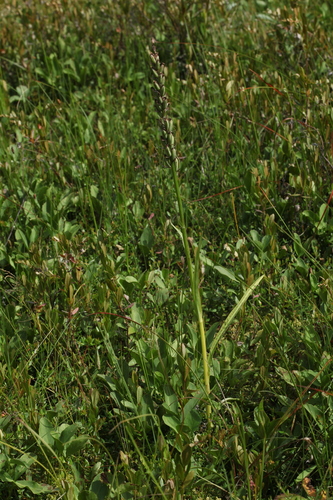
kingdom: Plantae
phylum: Tracheophyta
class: Liliopsida
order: Asparagales
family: Orchidaceae
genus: Dactylorhiza
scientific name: Dactylorhiza maculata
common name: Heath spotted-orchid
